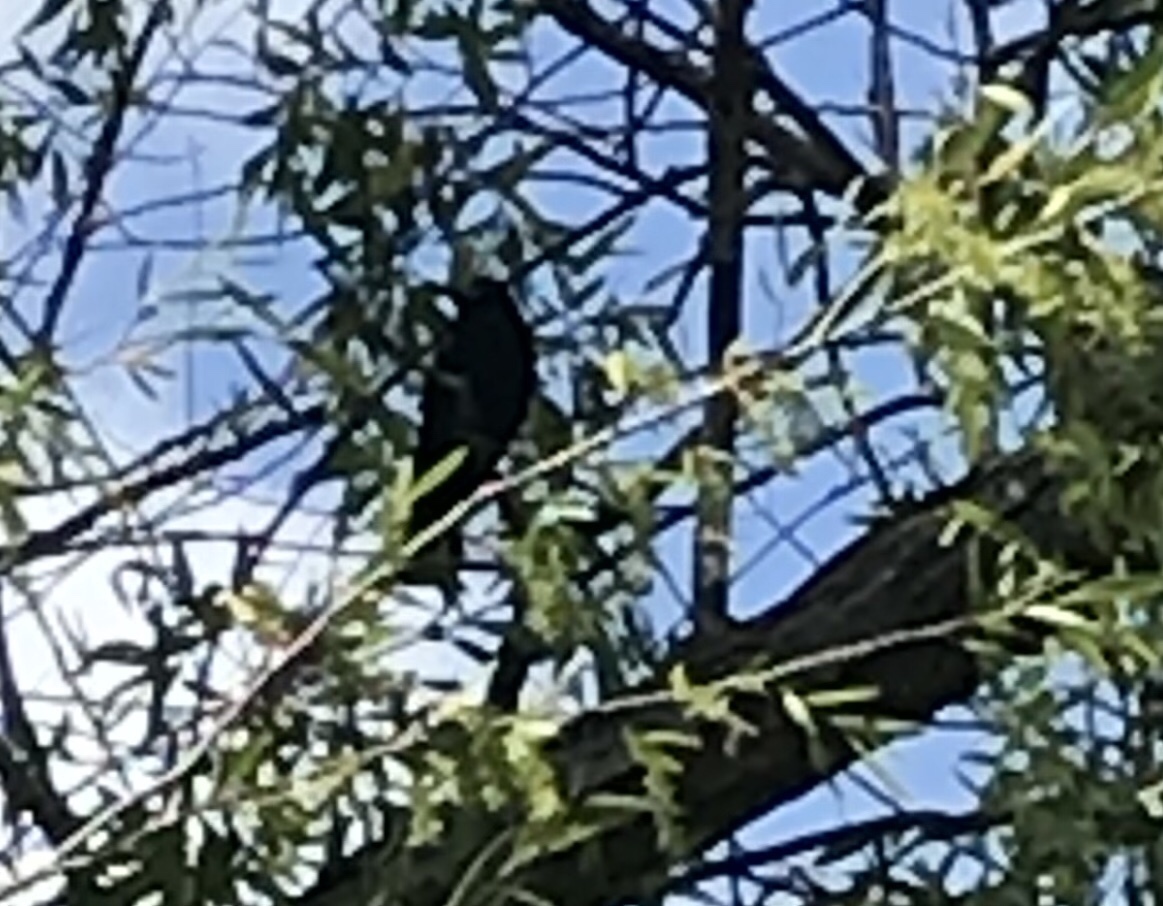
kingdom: Animalia
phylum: Chordata
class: Aves
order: Passeriformes
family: Icteridae
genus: Agelaius
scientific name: Agelaius phoeniceus
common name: Red-winged blackbird
